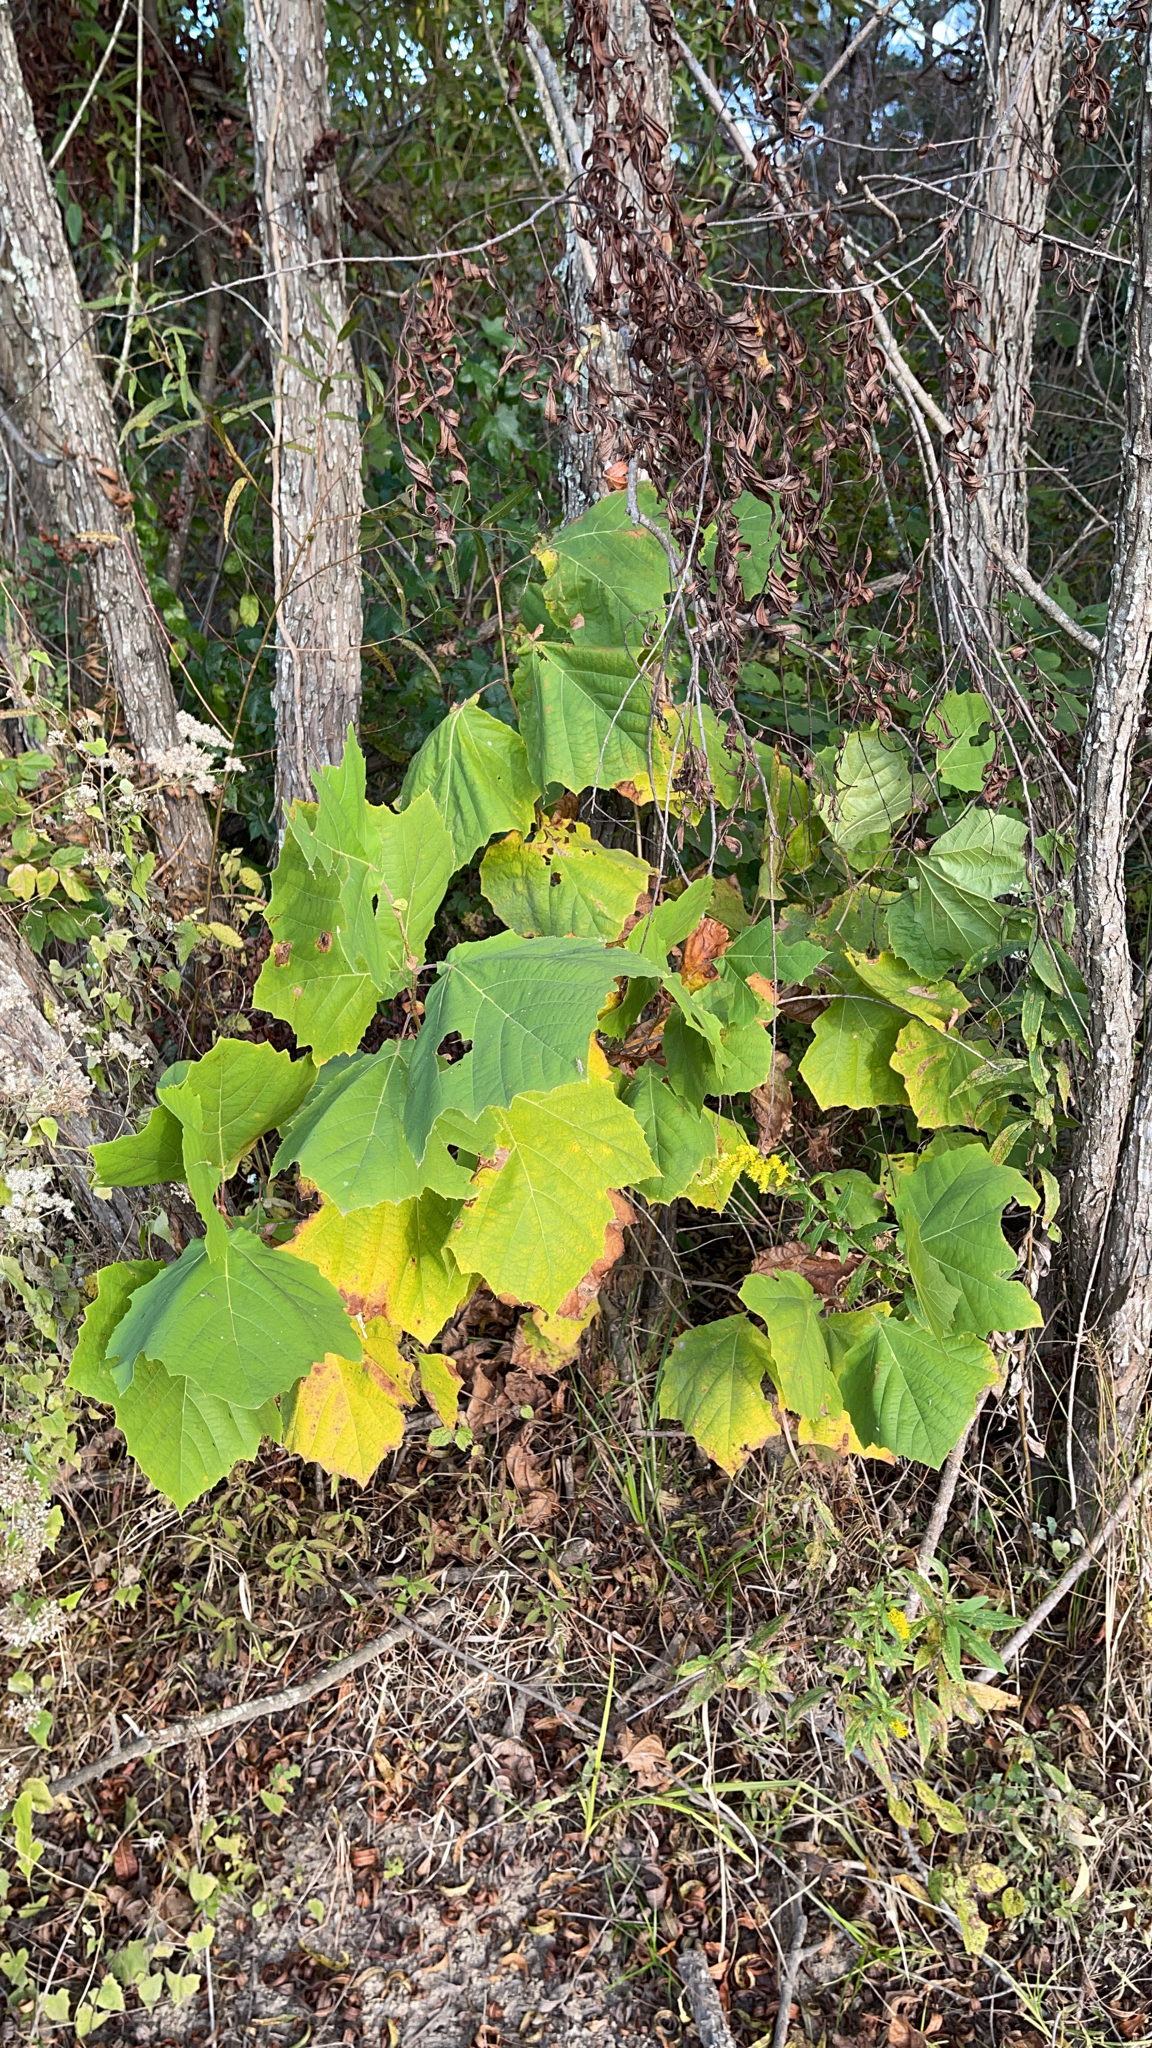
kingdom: Plantae
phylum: Tracheophyta
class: Magnoliopsida
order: Proteales
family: Platanaceae
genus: Platanus
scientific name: Platanus occidentalis
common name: American sycamore
